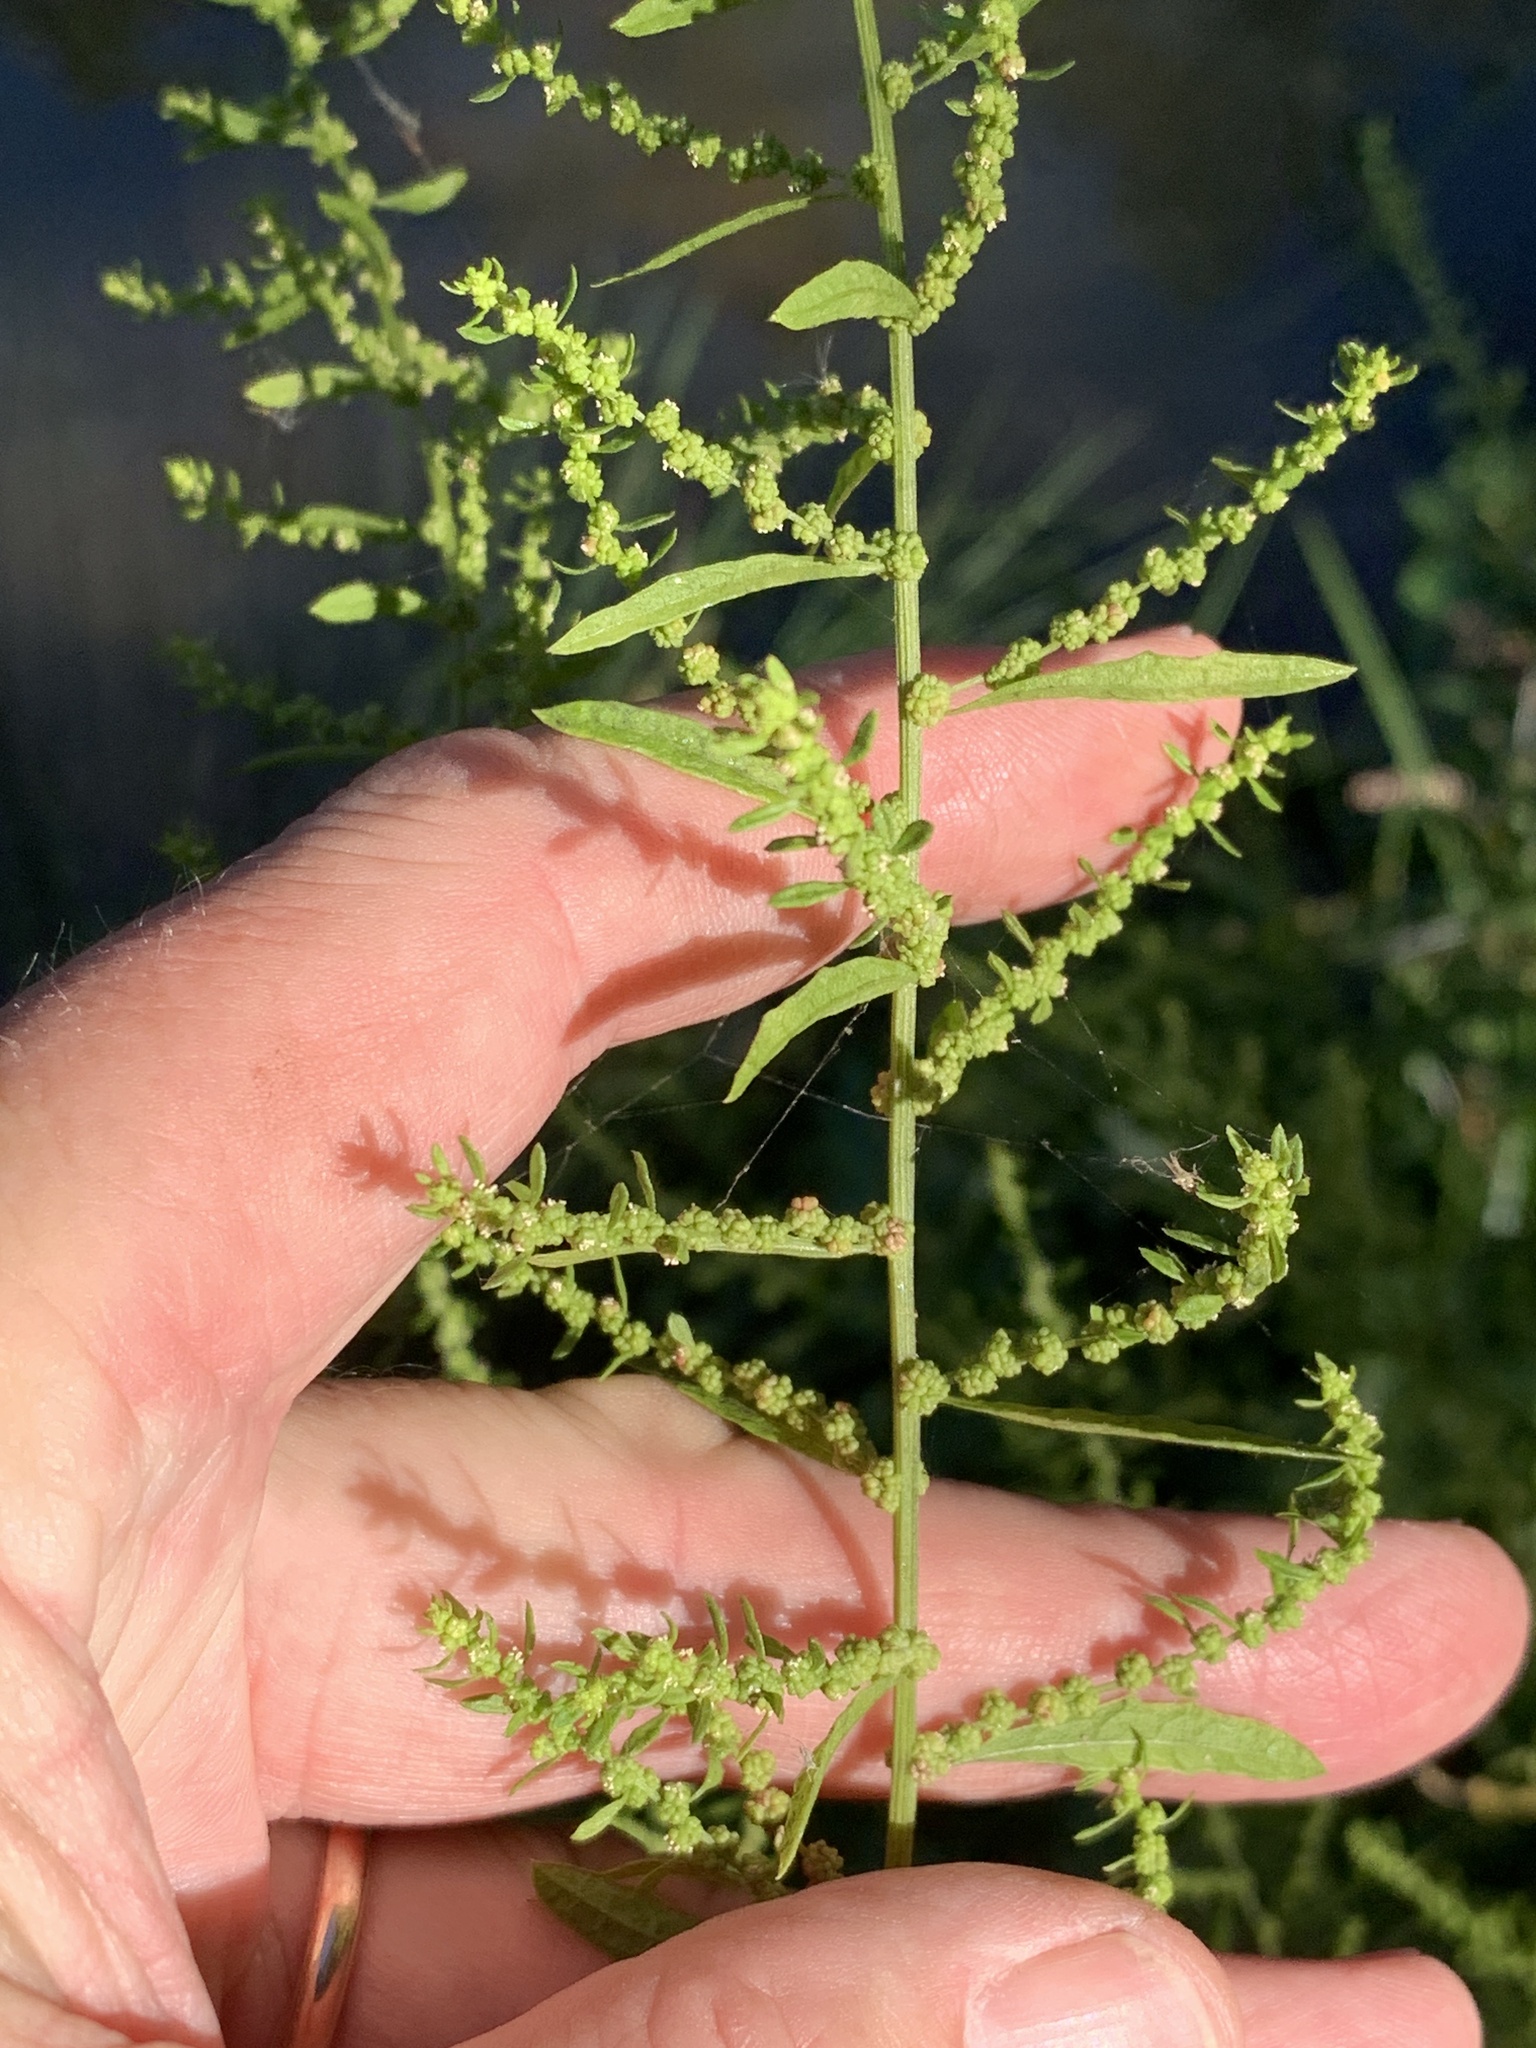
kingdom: Plantae
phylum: Tracheophyta
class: Magnoliopsida
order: Caryophyllales
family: Amaranthaceae
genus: Dysphania
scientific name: Dysphania ambrosioides
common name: Wormseed
